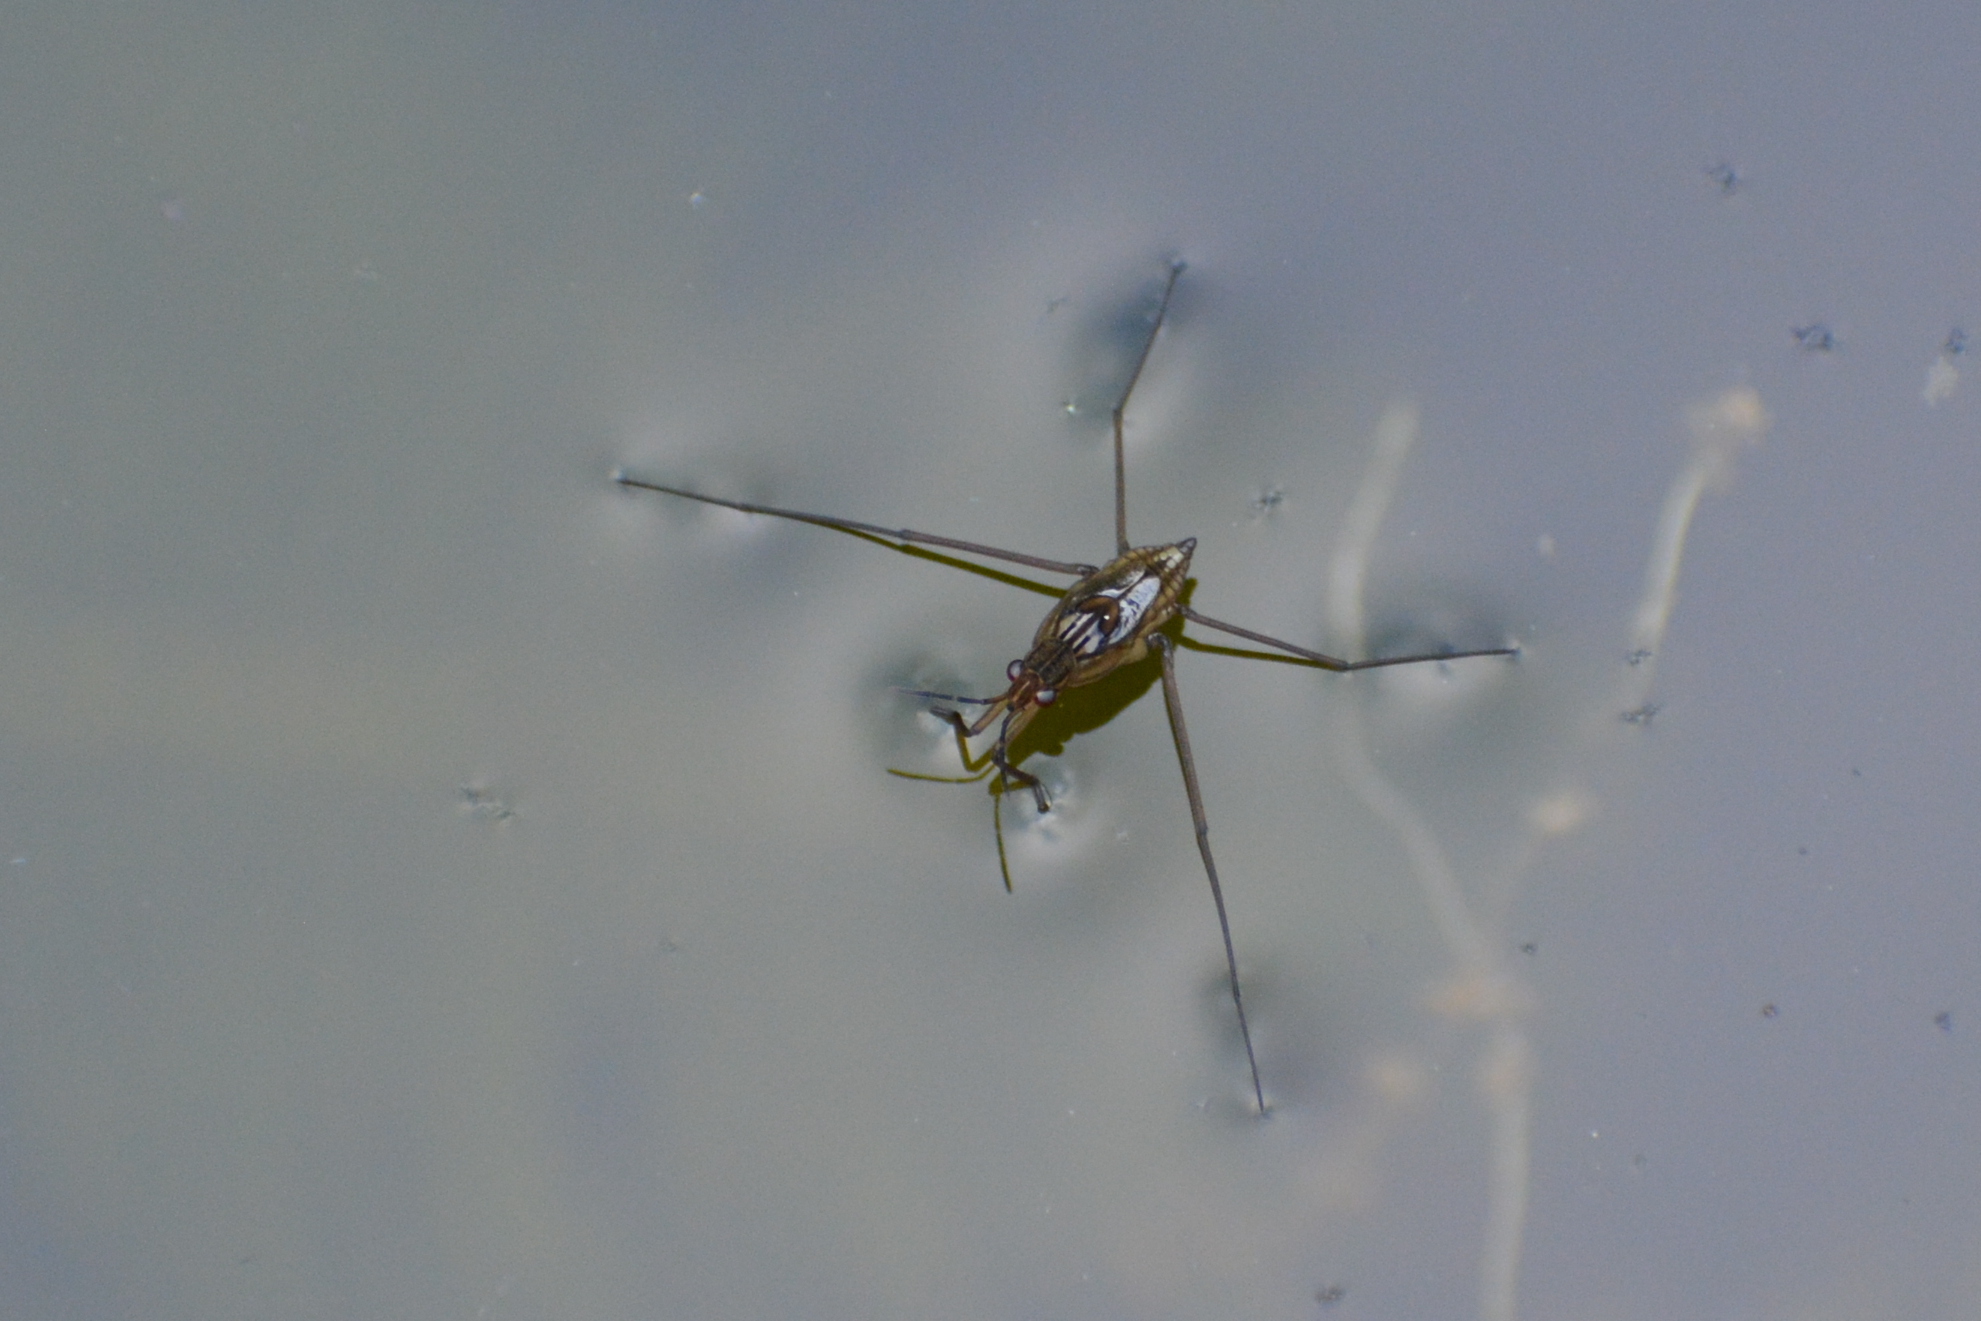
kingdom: Animalia
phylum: Arthropoda
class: Insecta
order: Hemiptera
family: Gerridae
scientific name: Gerridae
